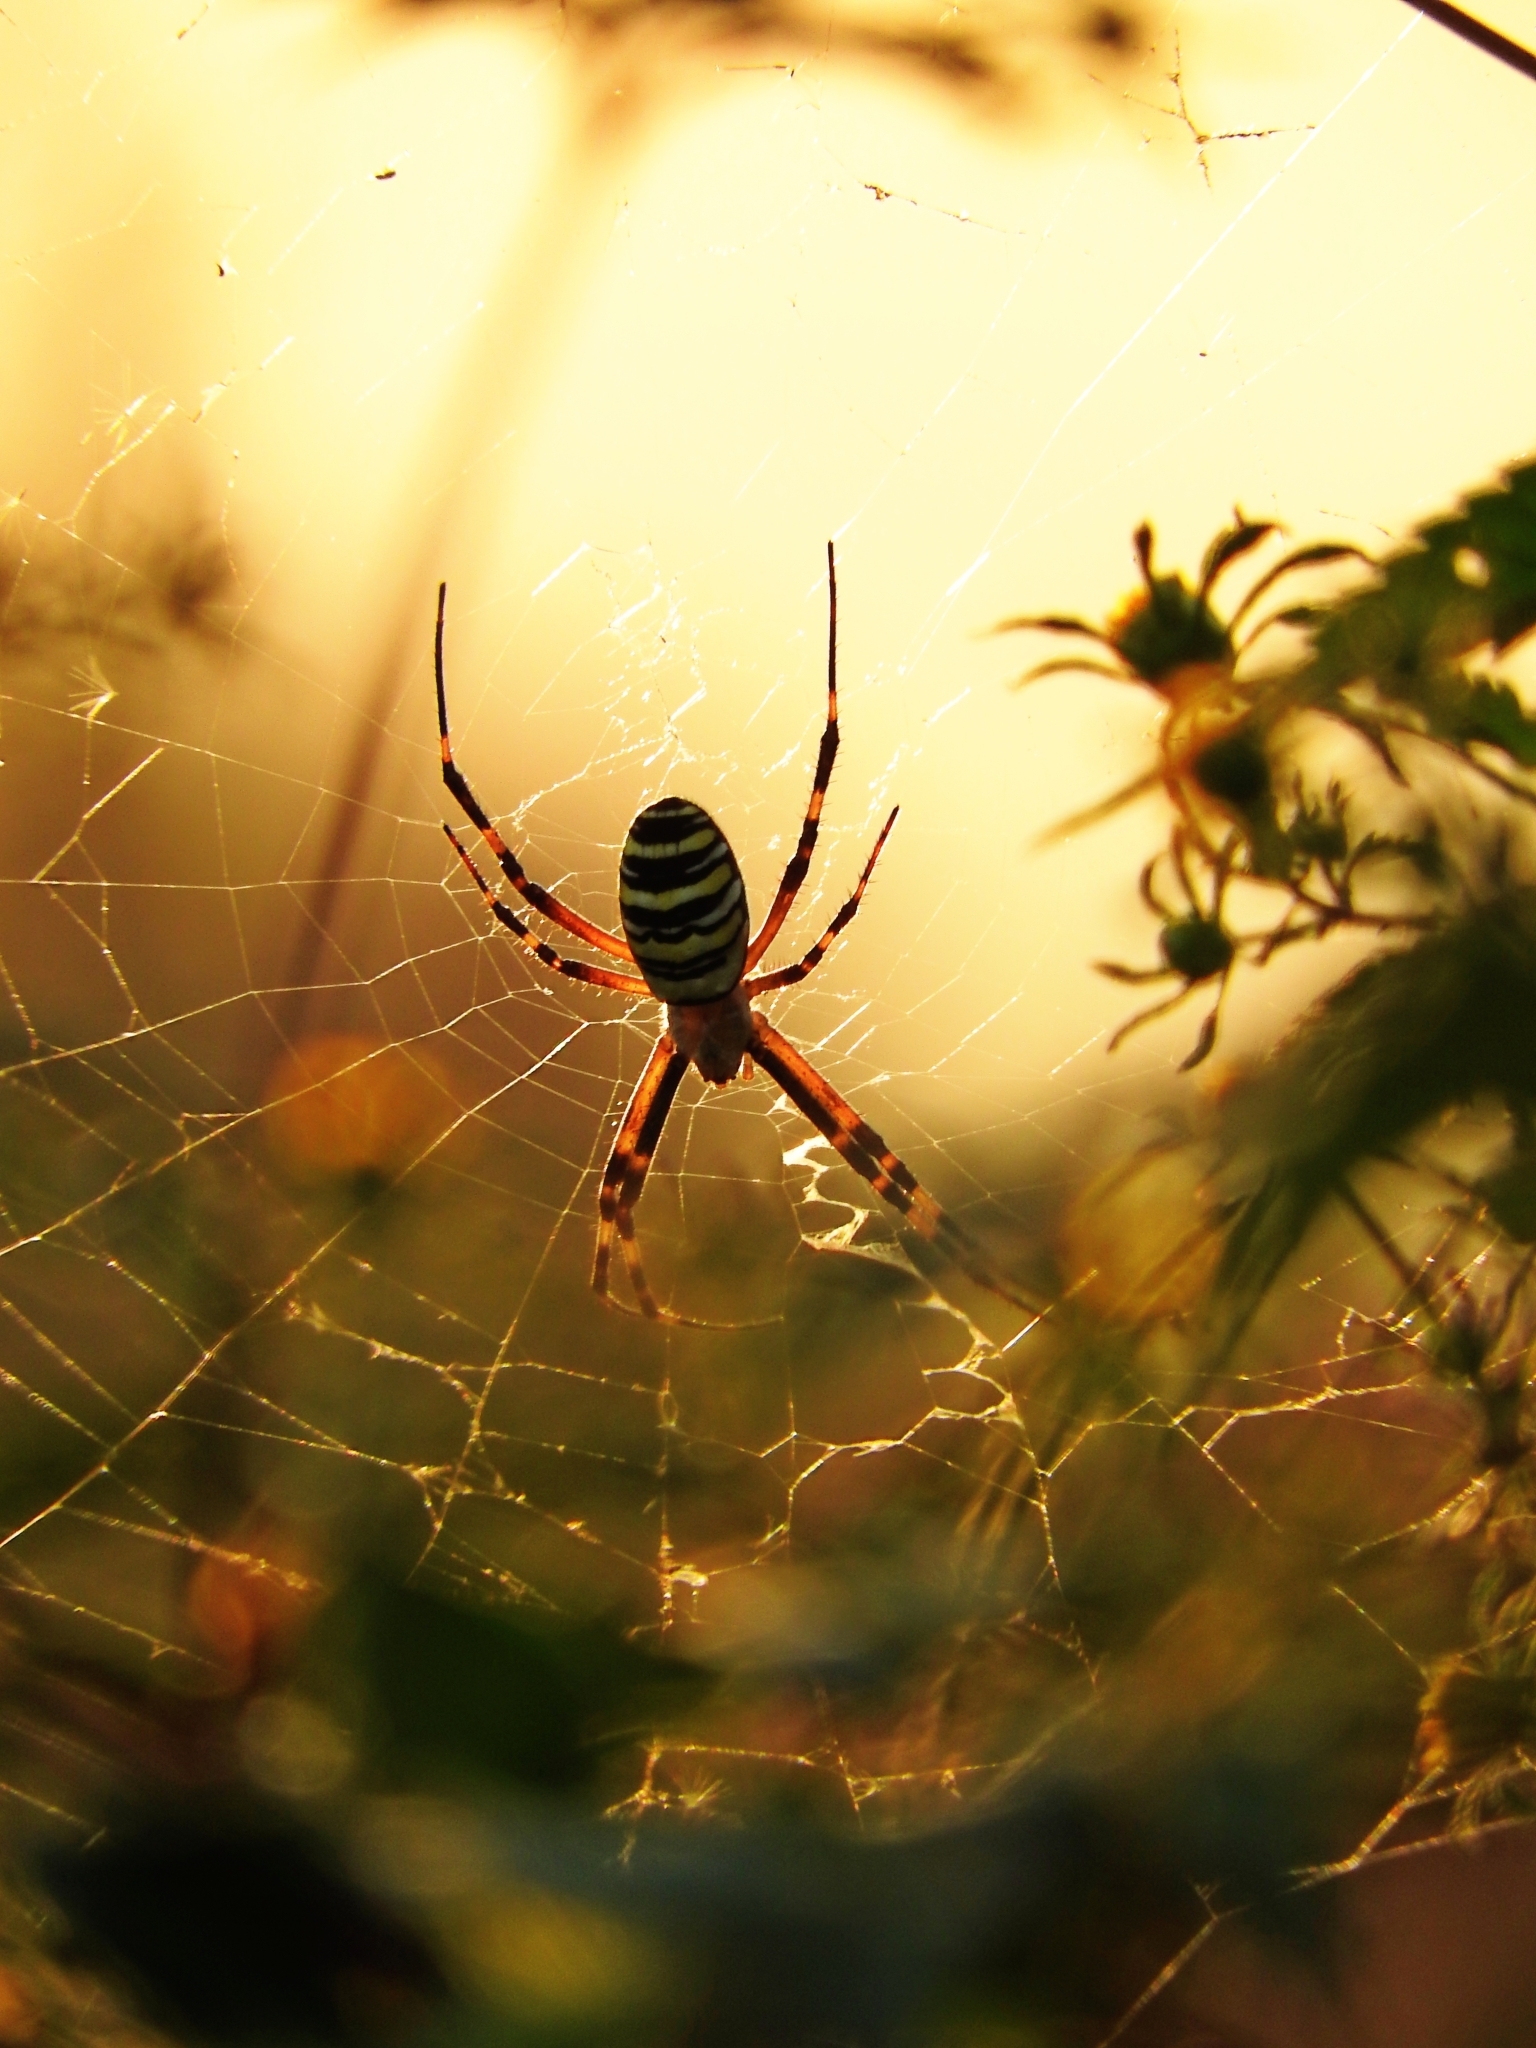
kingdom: Animalia
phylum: Arthropoda
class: Arachnida
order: Araneae
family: Araneidae
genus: Argiope
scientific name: Argiope bruennichi
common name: Wasp spider
